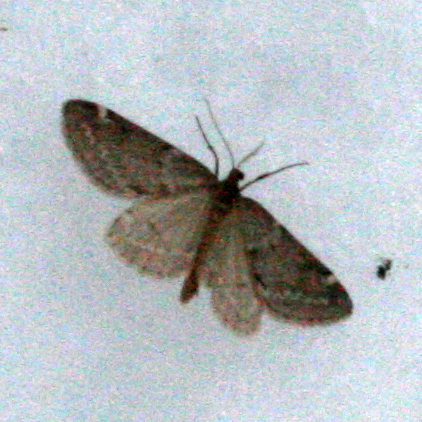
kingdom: Animalia
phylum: Arthropoda
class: Insecta
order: Lepidoptera
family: Geometridae
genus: Alsophila
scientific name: Alsophila pometaria
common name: Fall cankerworm
